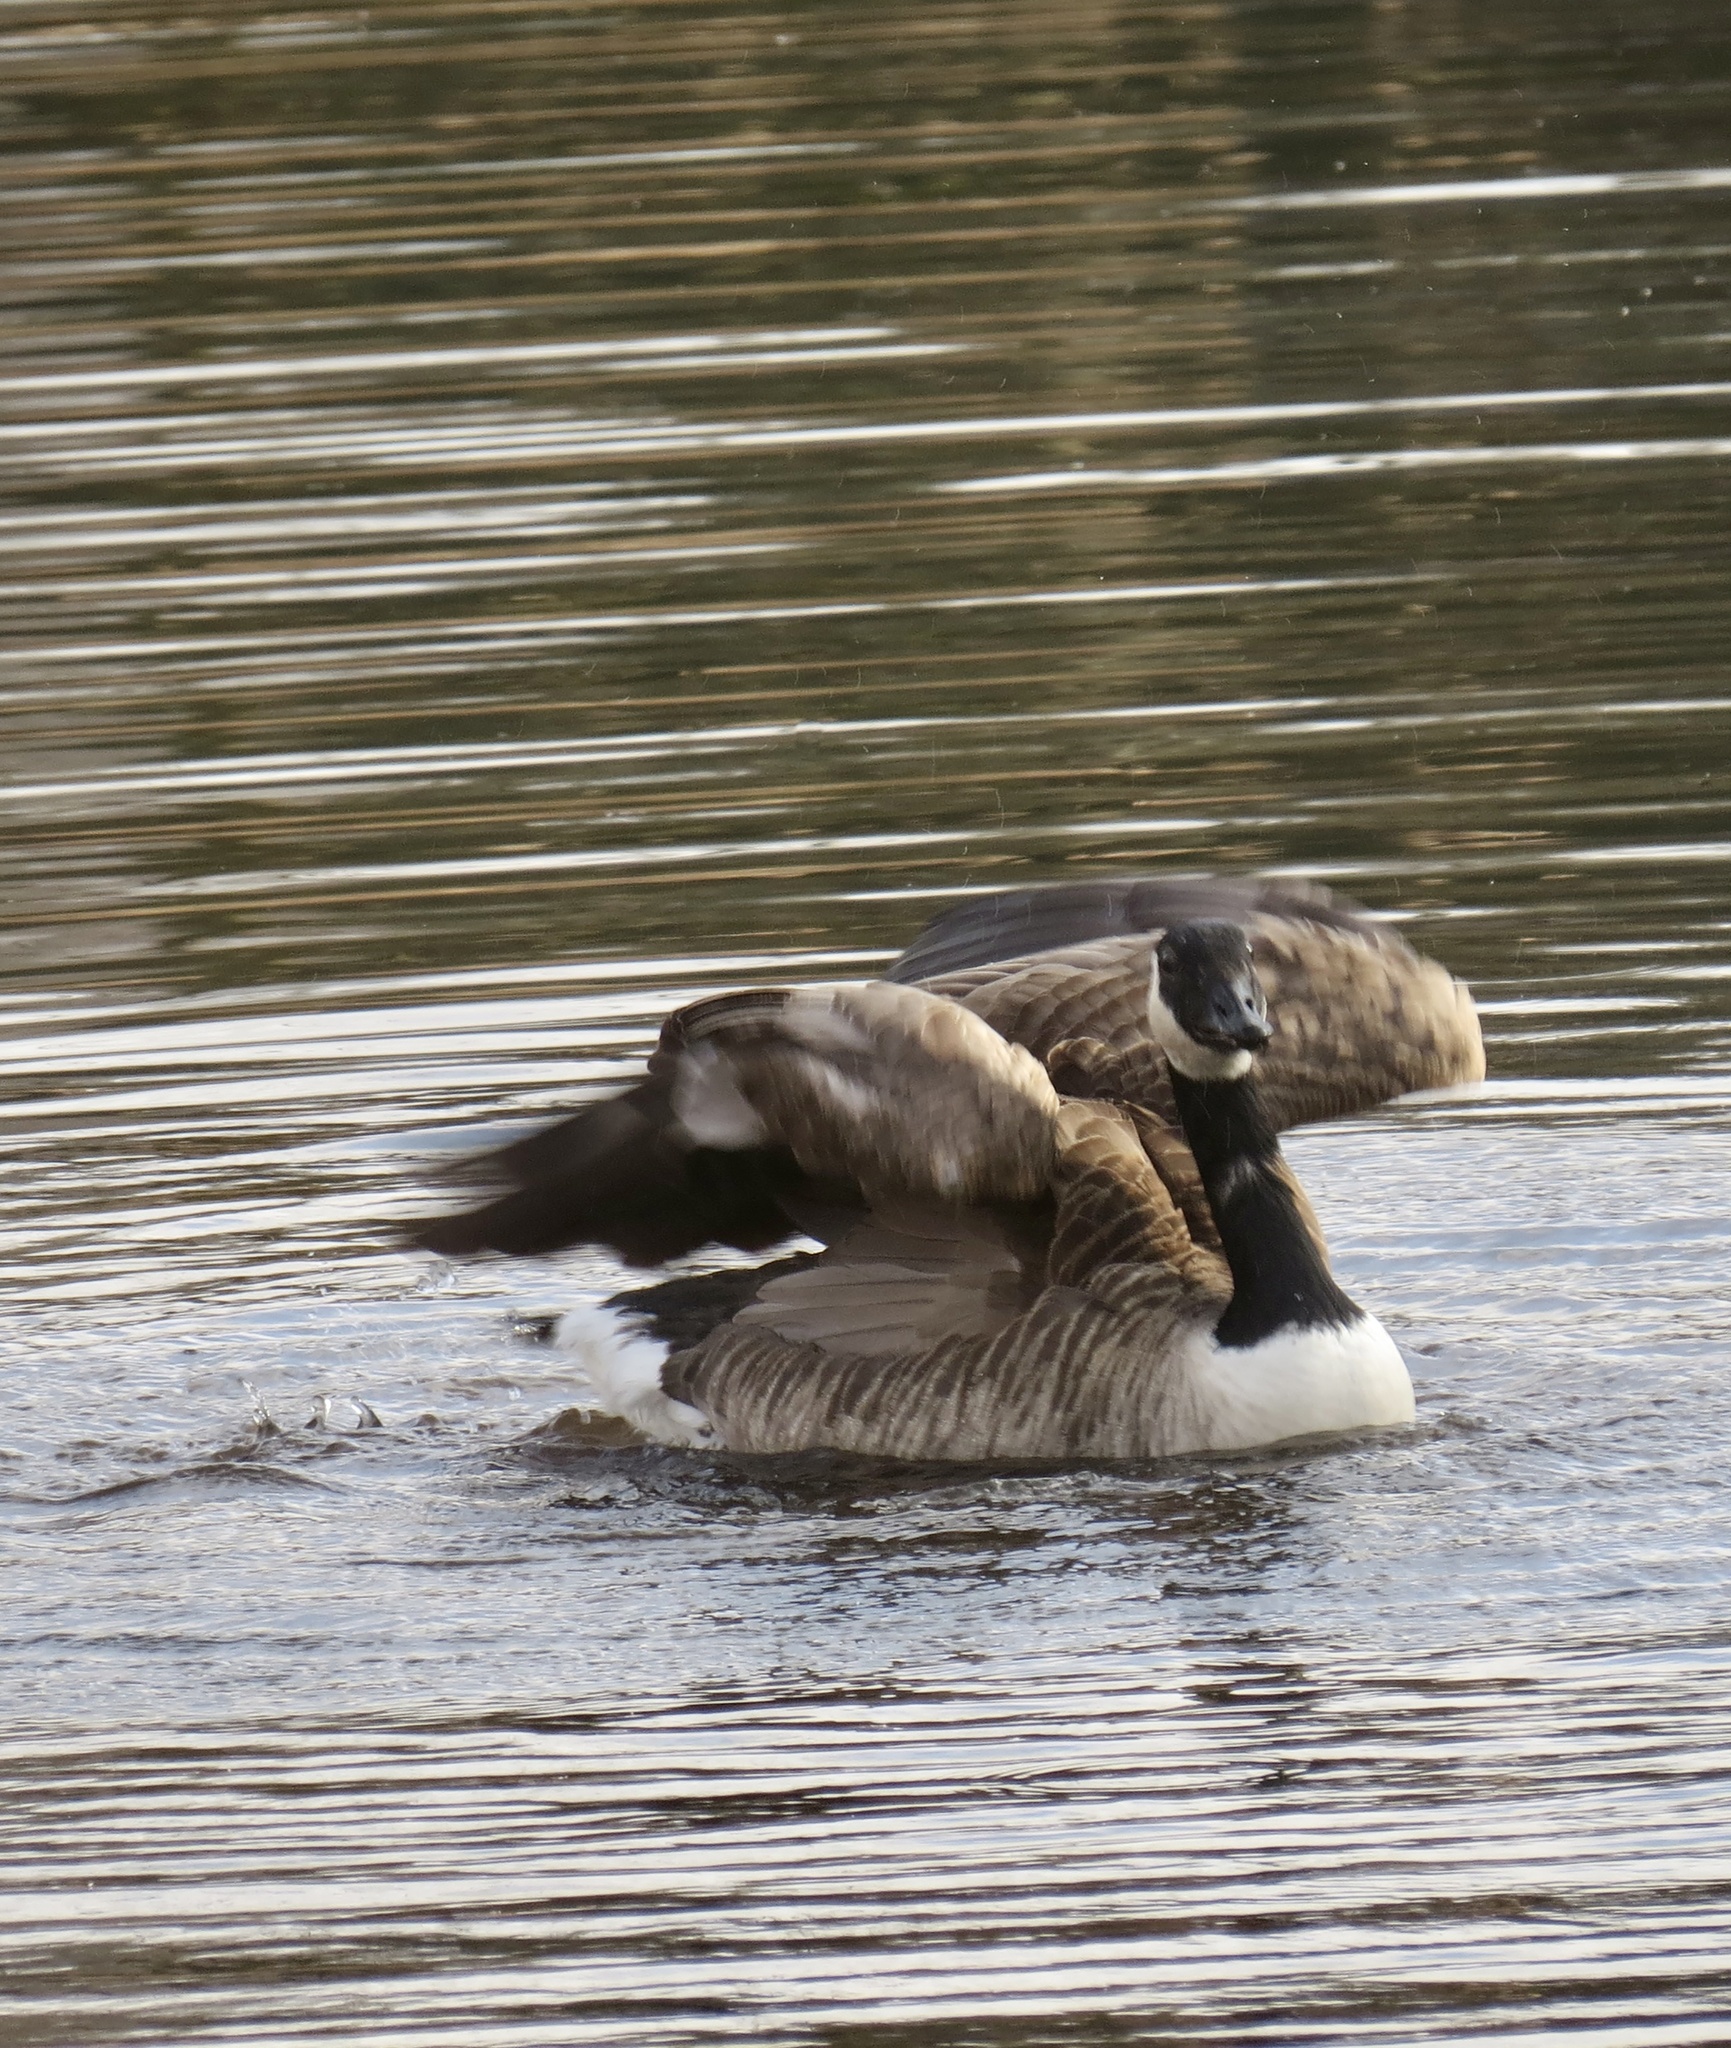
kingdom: Animalia
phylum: Chordata
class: Aves
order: Anseriformes
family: Anatidae
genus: Branta
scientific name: Branta canadensis
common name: Canada goose
